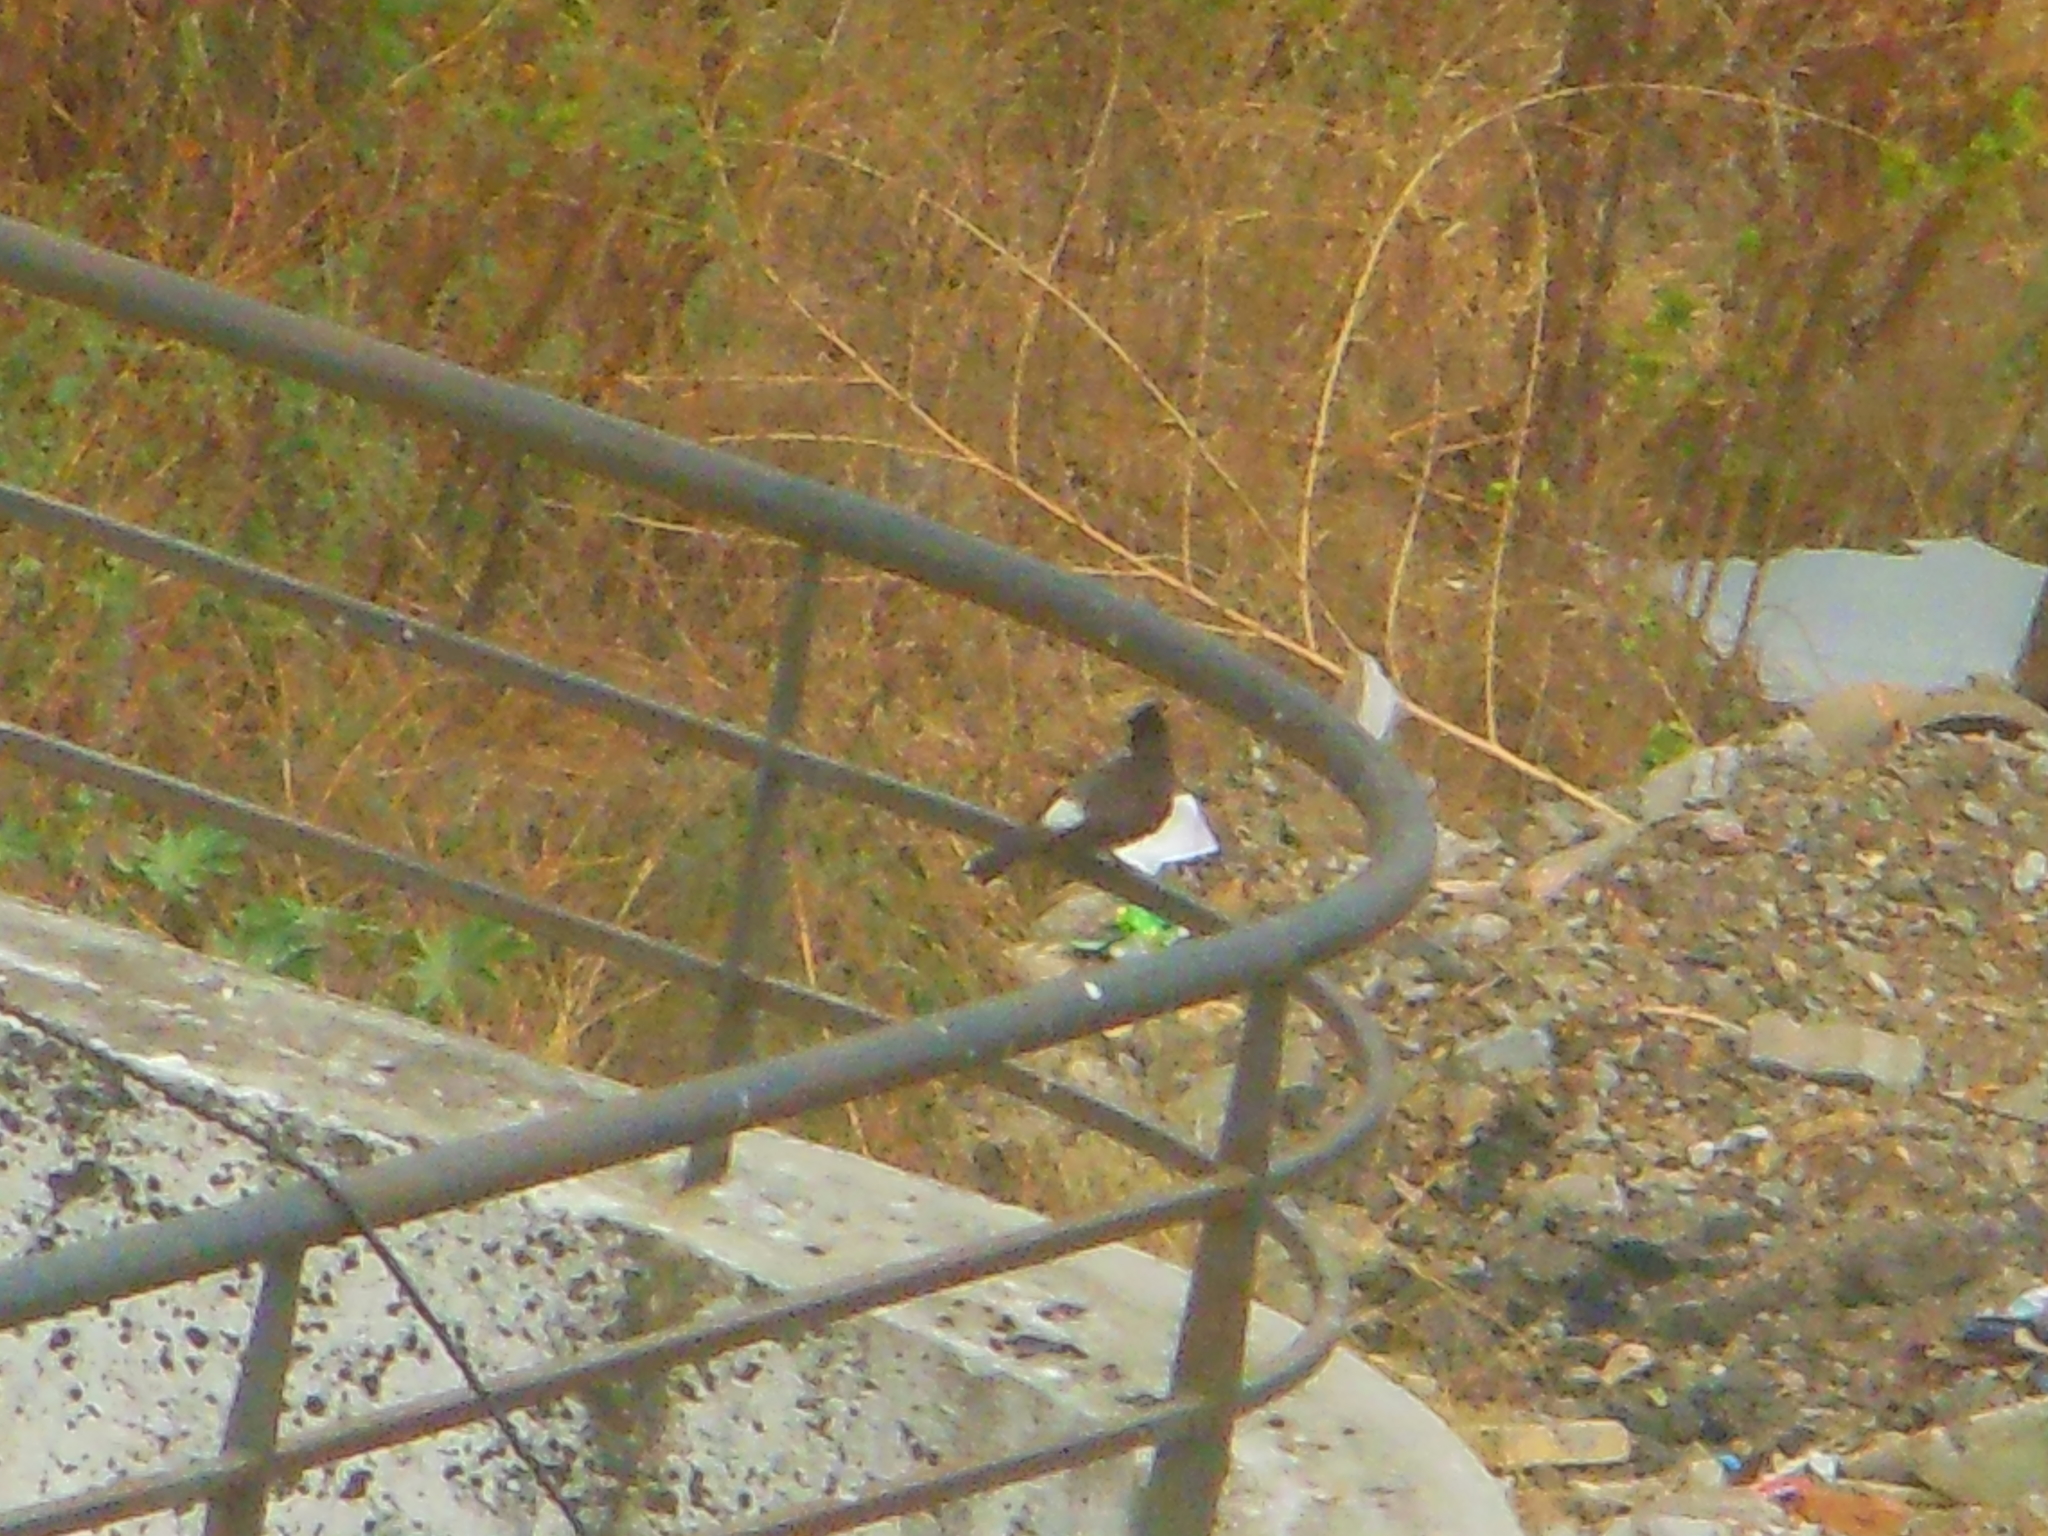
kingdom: Animalia
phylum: Chordata
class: Aves
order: Passeriformes
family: Pycnonotidae
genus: Pycnonotus
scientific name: Pycnonotus cafer
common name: Red-vented bulbul
